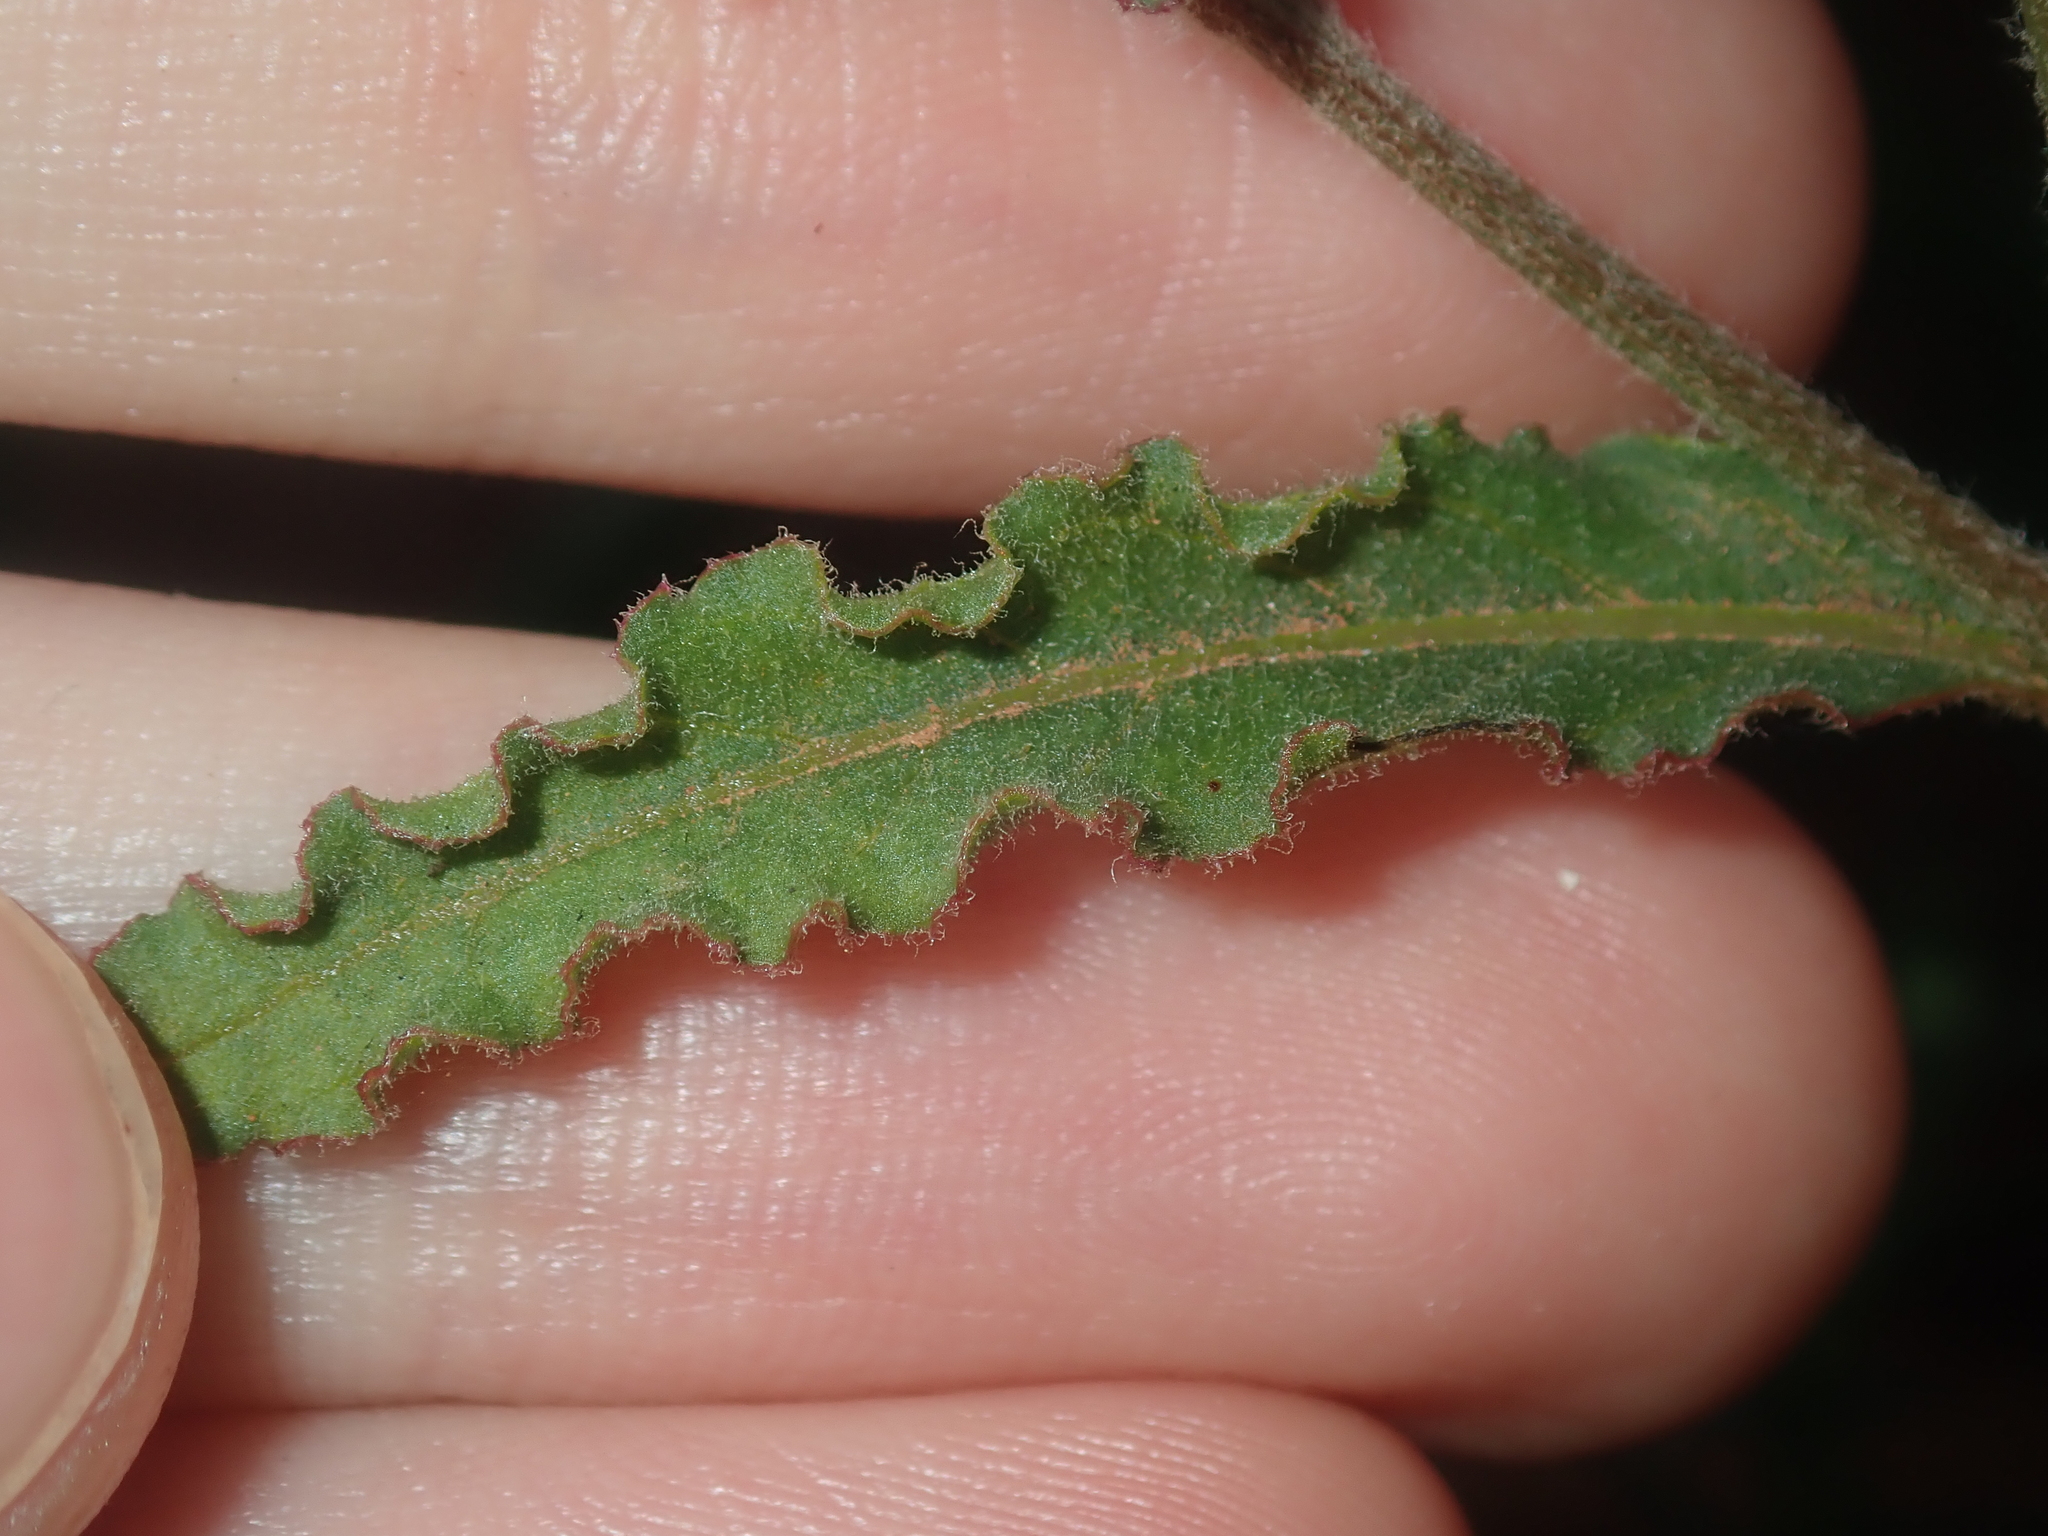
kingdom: Plantae
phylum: Tracheophyta
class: Magnoliopsida
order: Caryophyllales
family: Amaranthaceae
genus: Ptilotus
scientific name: Ptilotus polystachyus
